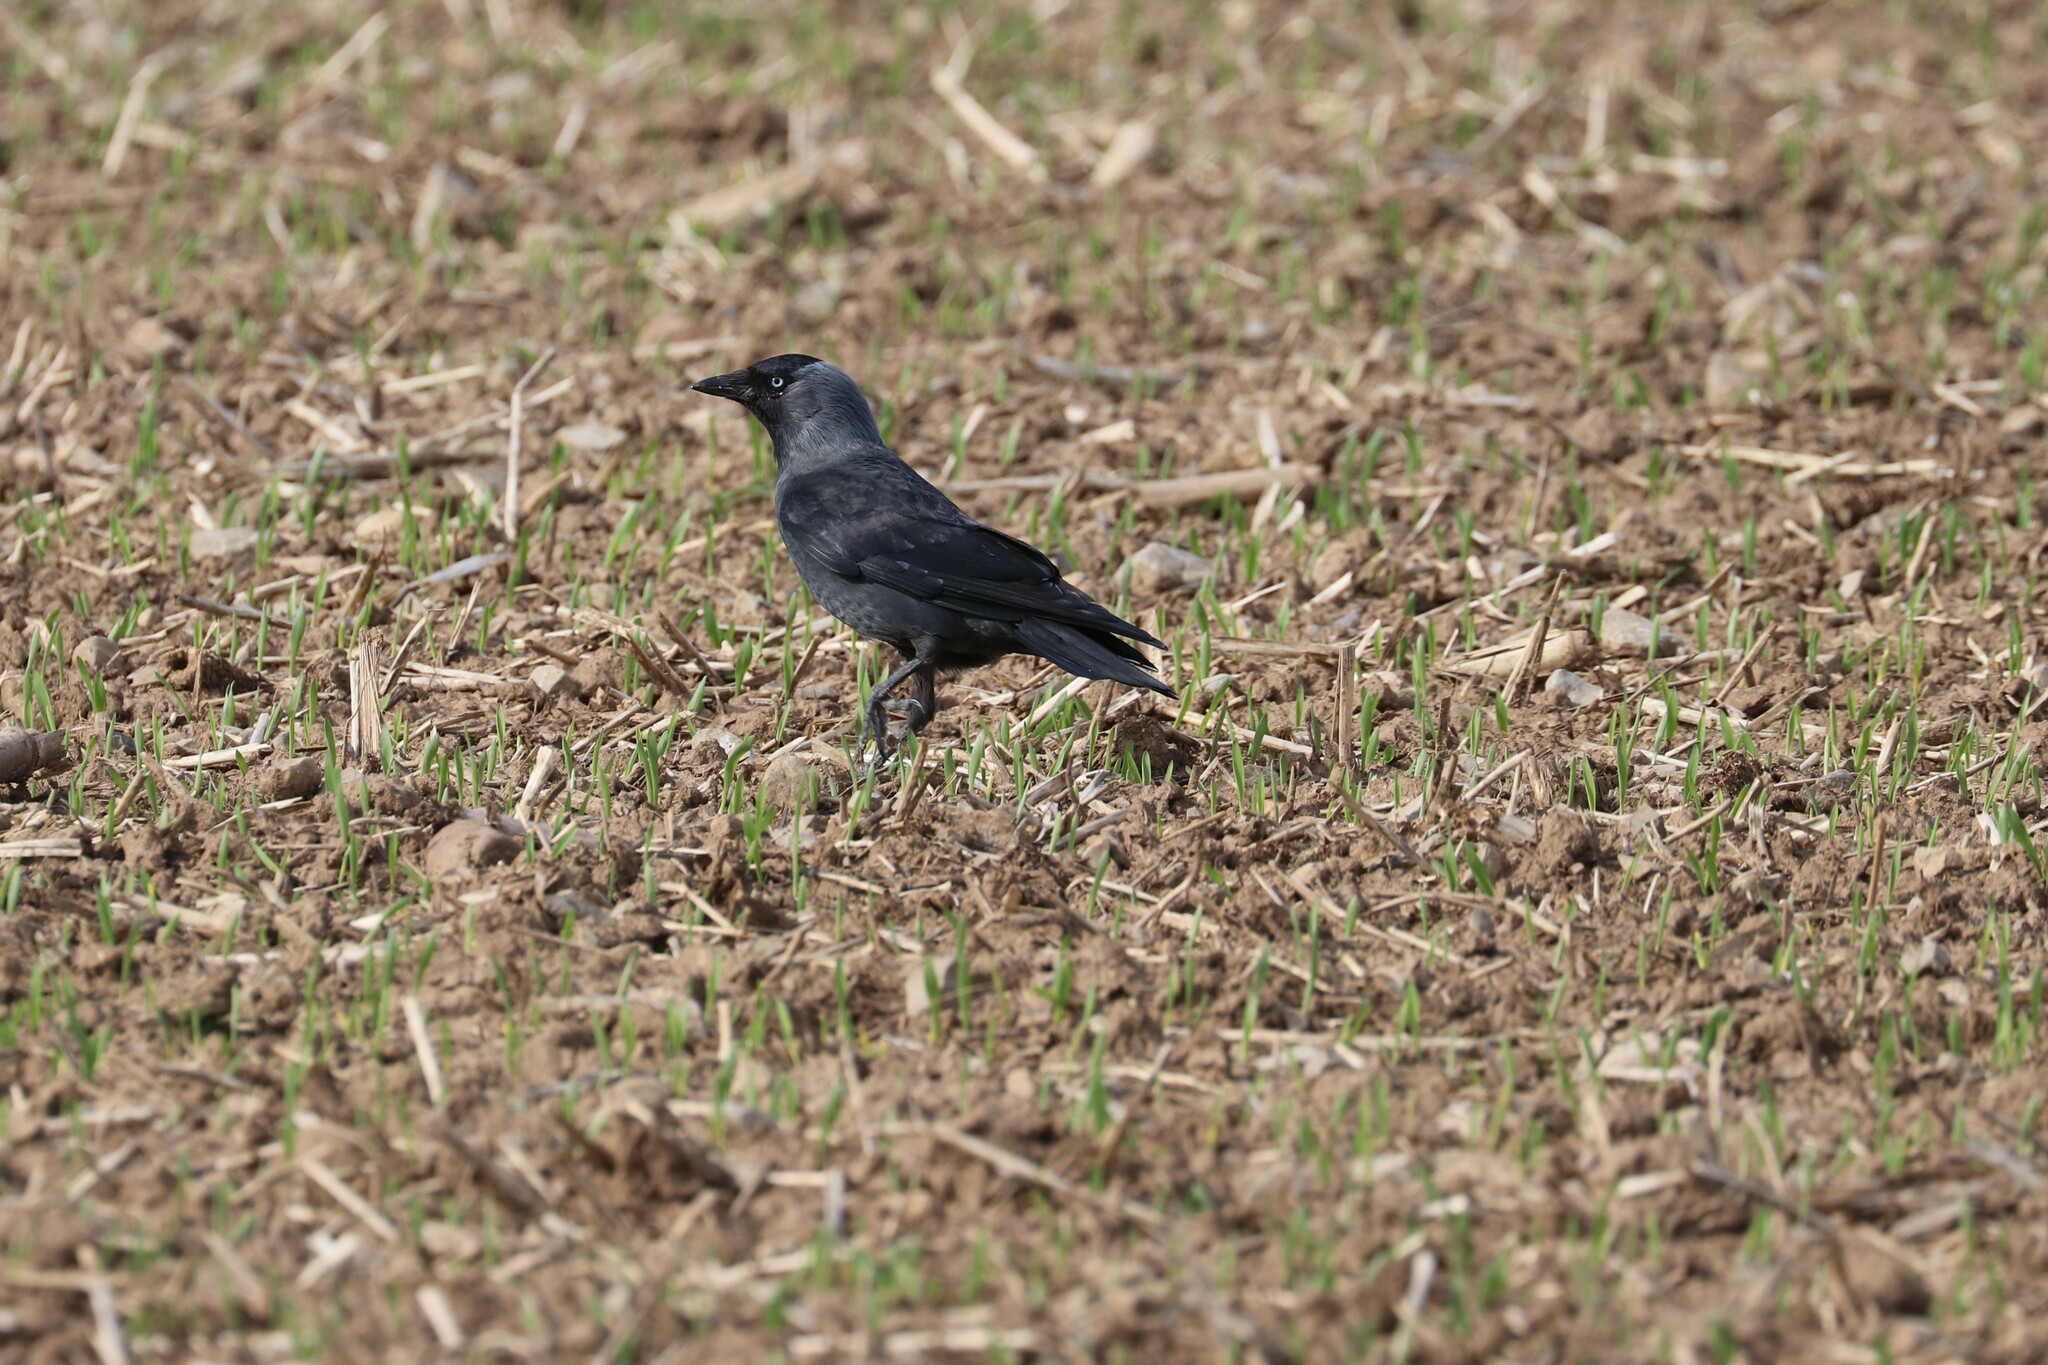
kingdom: Animalia
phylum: Chordata
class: Aves
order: Passeriformes
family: Corvidae
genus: Coloeus
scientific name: Coloeus monedula
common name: Western jackdaw
